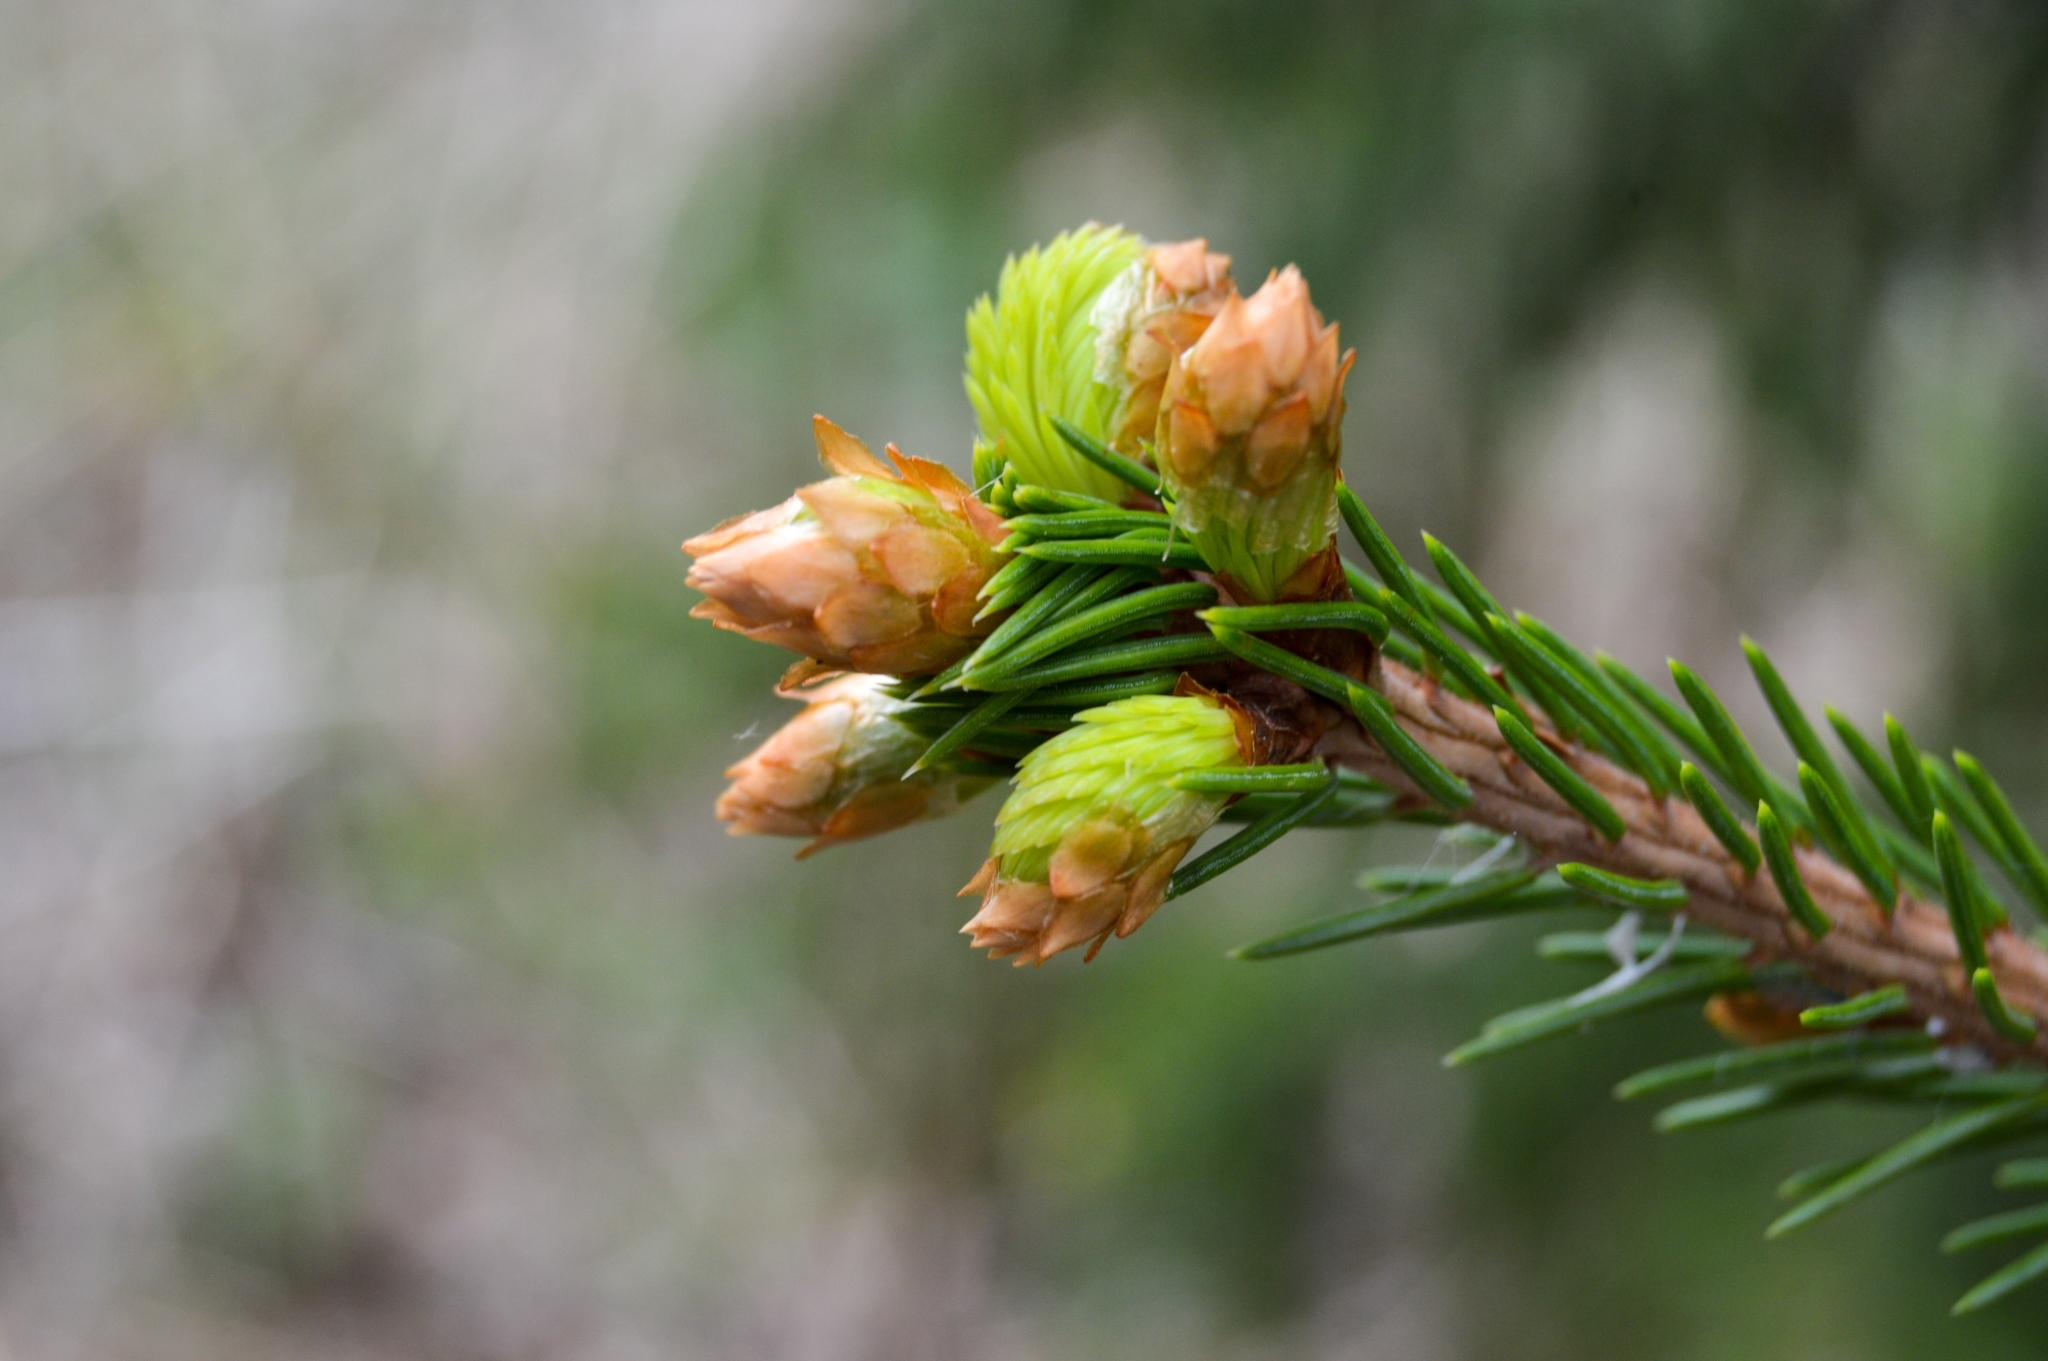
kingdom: Plantae
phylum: Tracheophyta
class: Pinopsida
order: Pinales
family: Pinaceae
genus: Picea
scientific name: Picea obovata
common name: Siberian spruce
